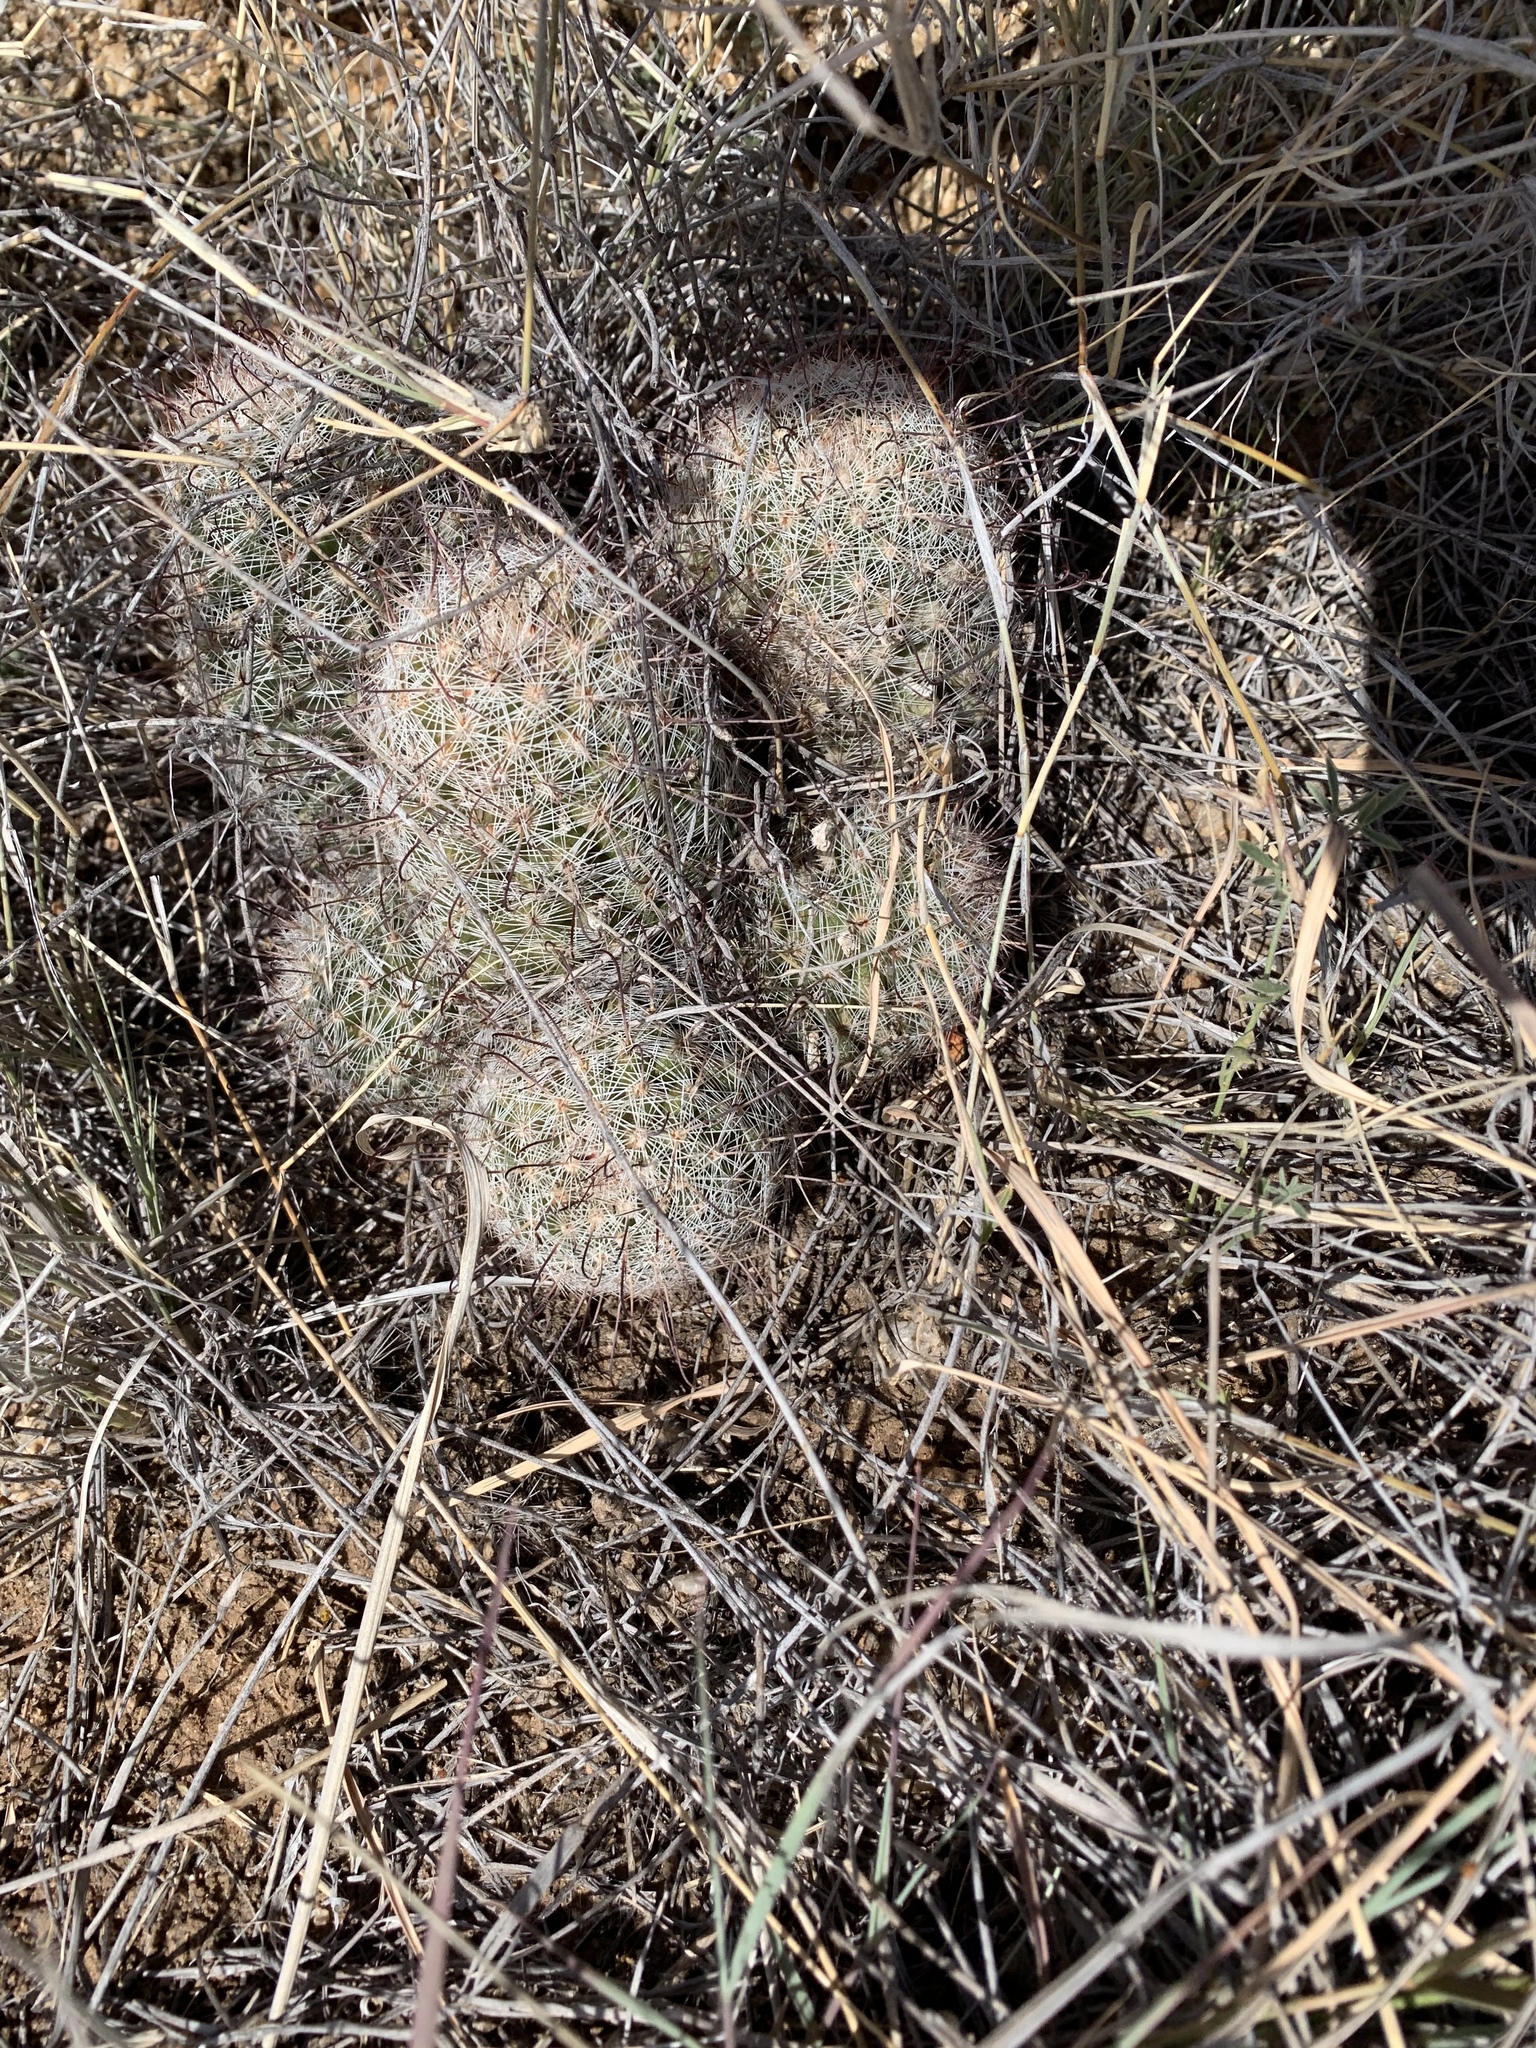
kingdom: Plantae
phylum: Tracheophyta
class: Magnoliopsida
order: Caryophyllales
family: Cactaceae
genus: Cochemiea
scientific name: Cochemiea grahamii
